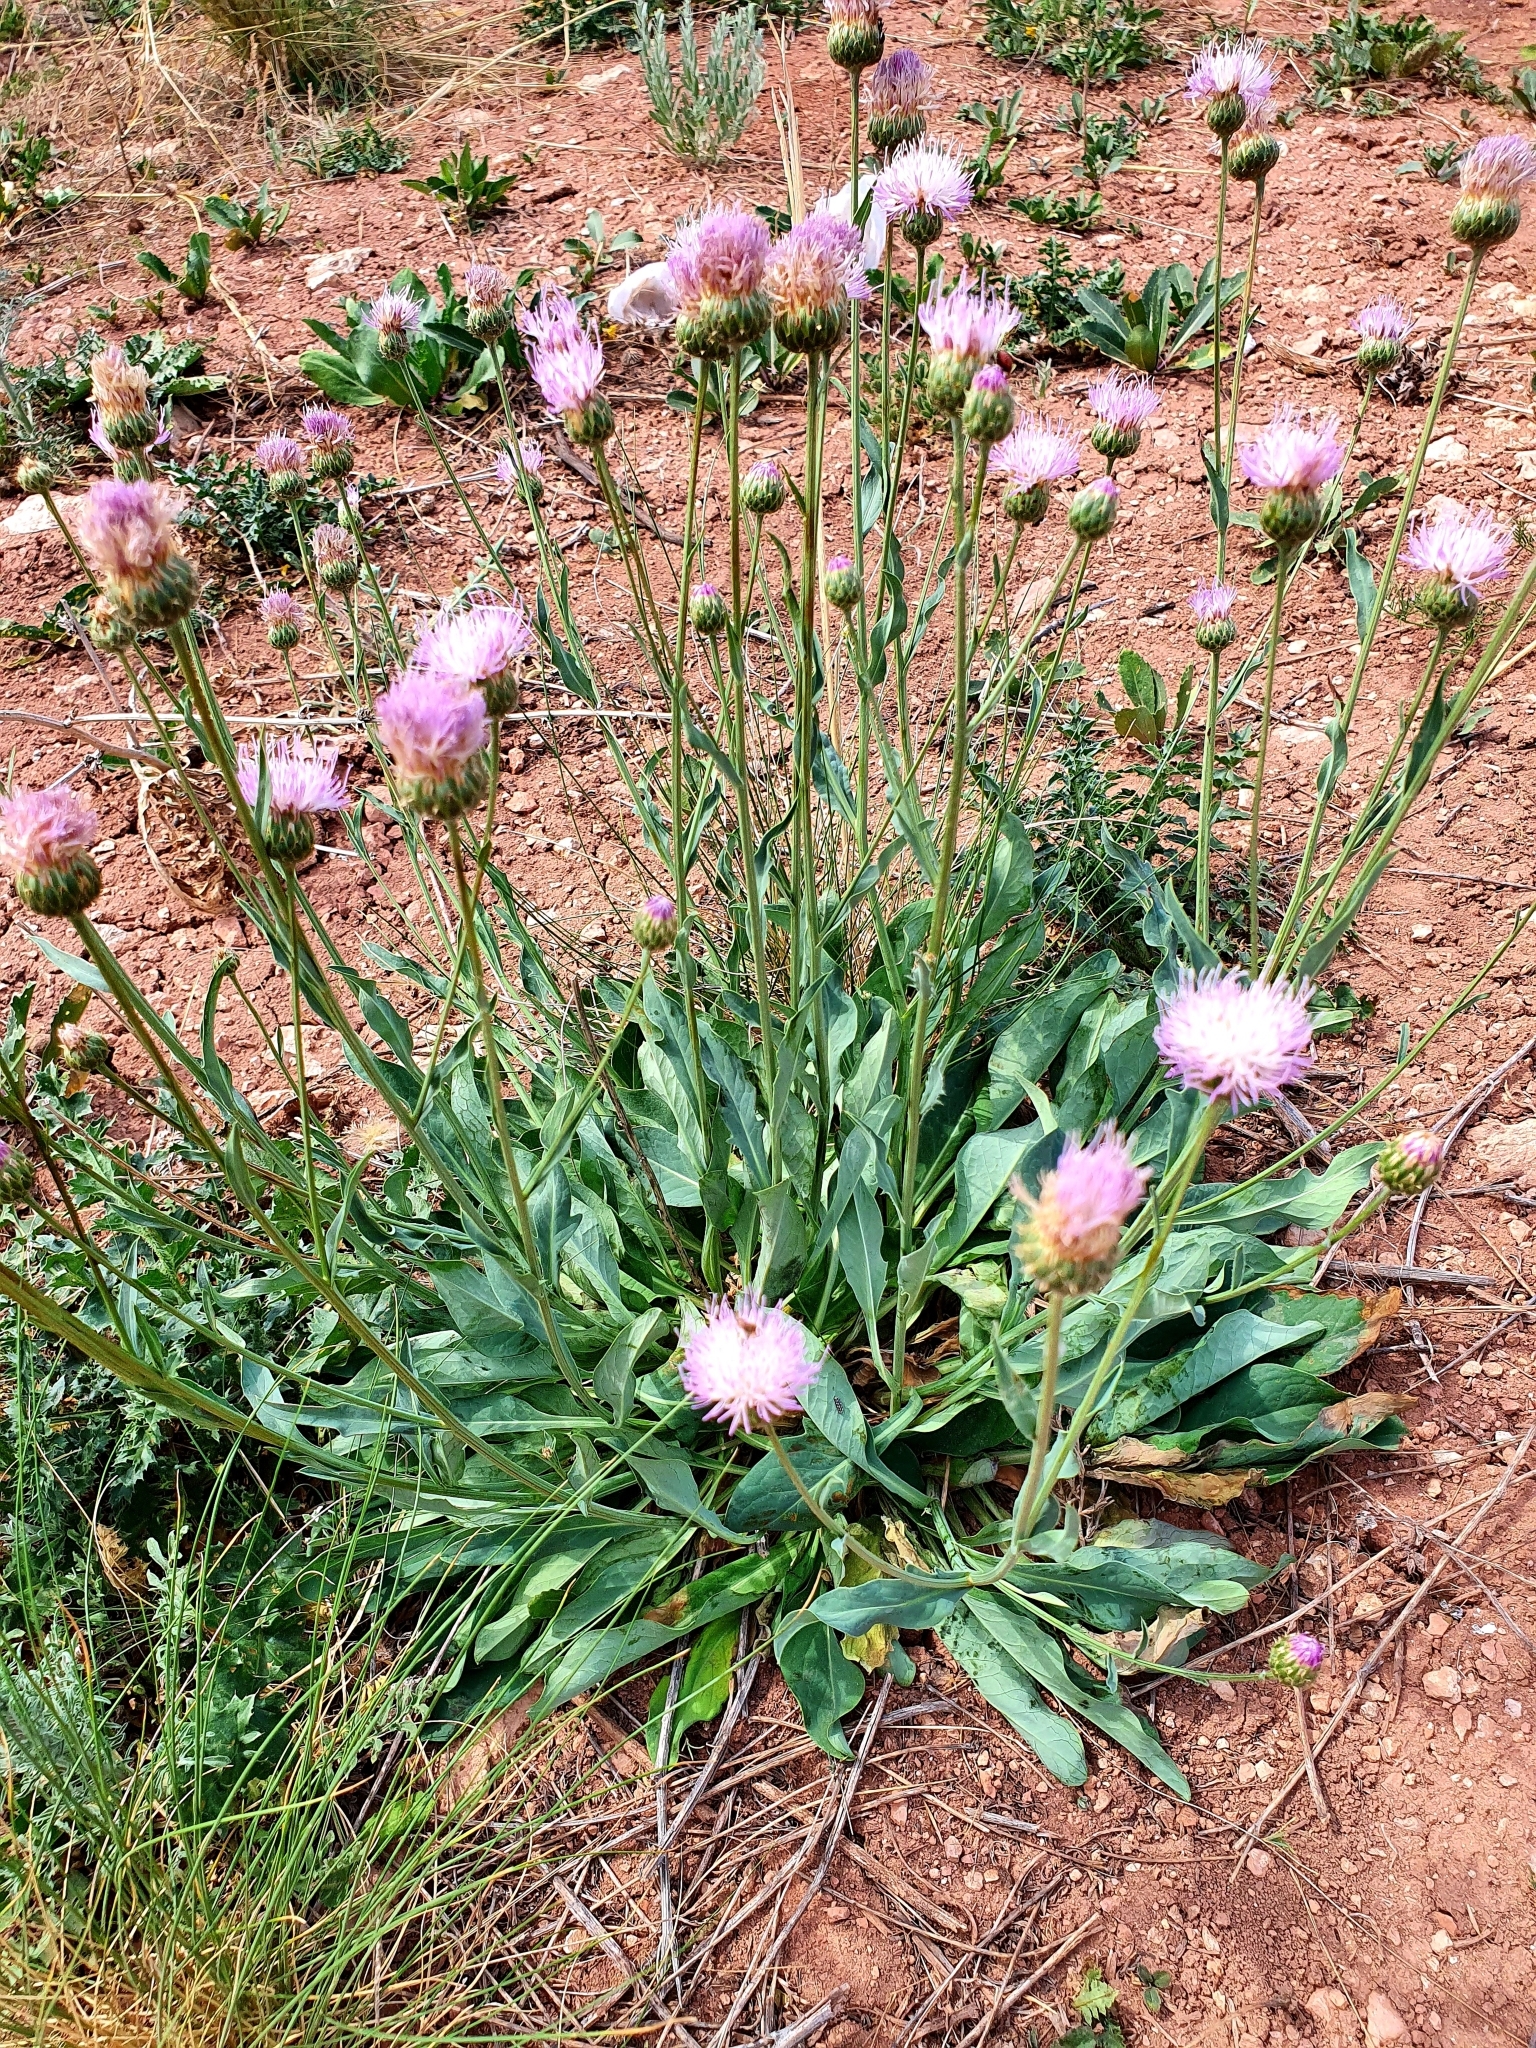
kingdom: Plantae
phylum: Tracheophyta
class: Magnoliopsida
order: Asterales
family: Asteraceae
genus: Klasea
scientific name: Klasea cardunculus
